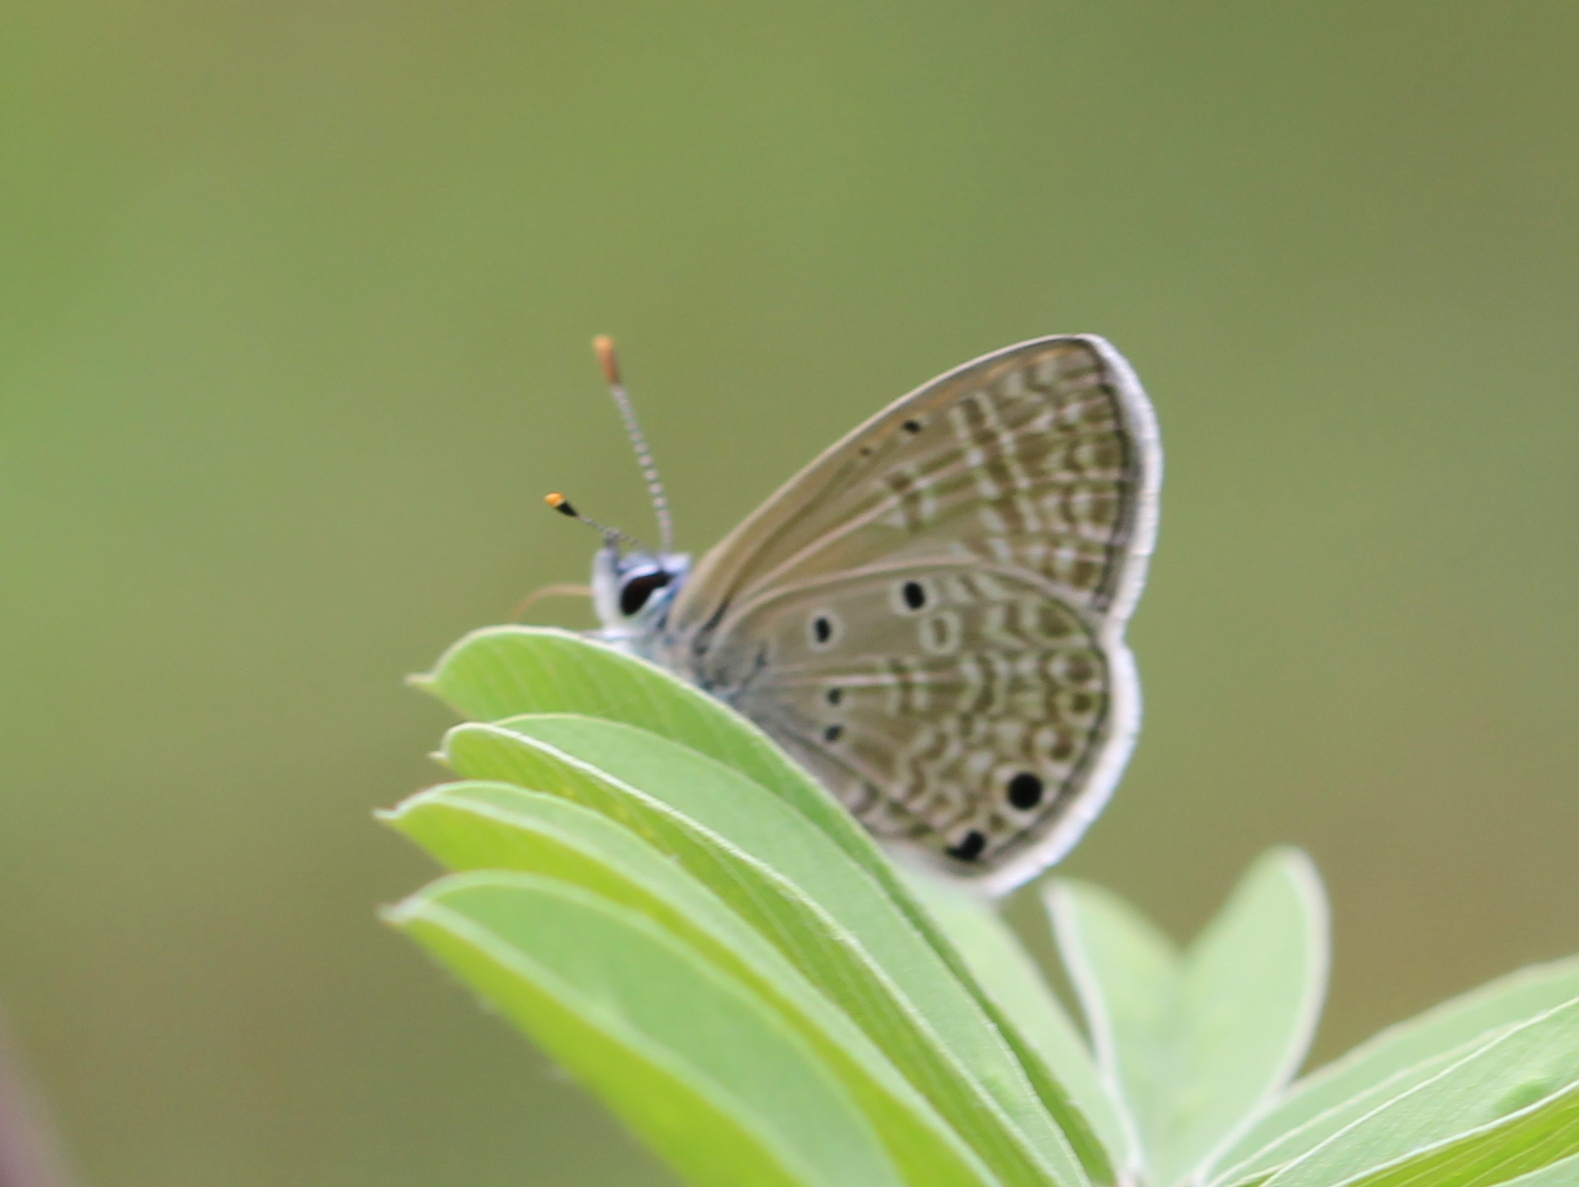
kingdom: Animalia
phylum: Arthropoda
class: Insecta
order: Lepidoptera
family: Lycaenidae
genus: Azanus
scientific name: Azanus ubaldus
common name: Desert babul blue
